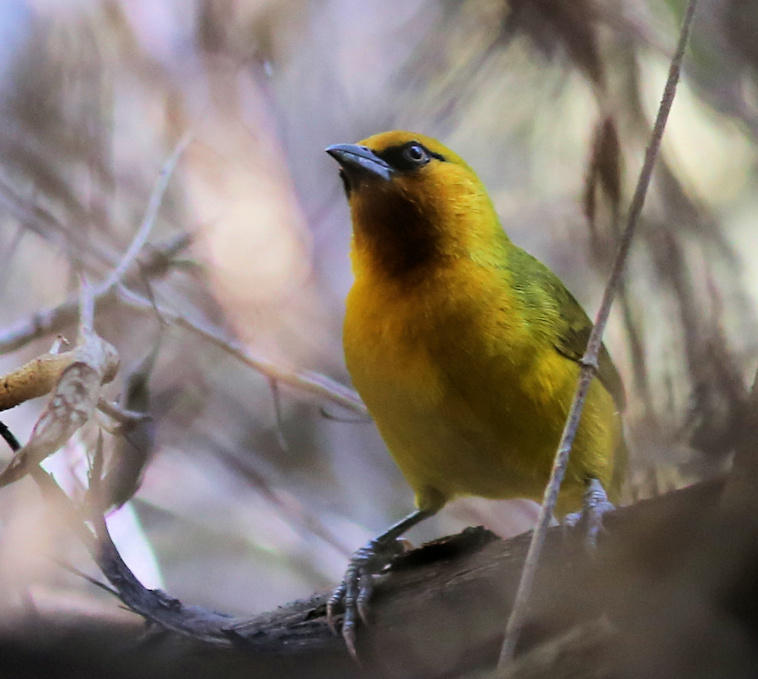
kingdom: Animalia
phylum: Chordata
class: Aves
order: Passeriformes
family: Ploceidae
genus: Ploceus
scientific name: Ploceus ocularis
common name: Spectacled weaver
